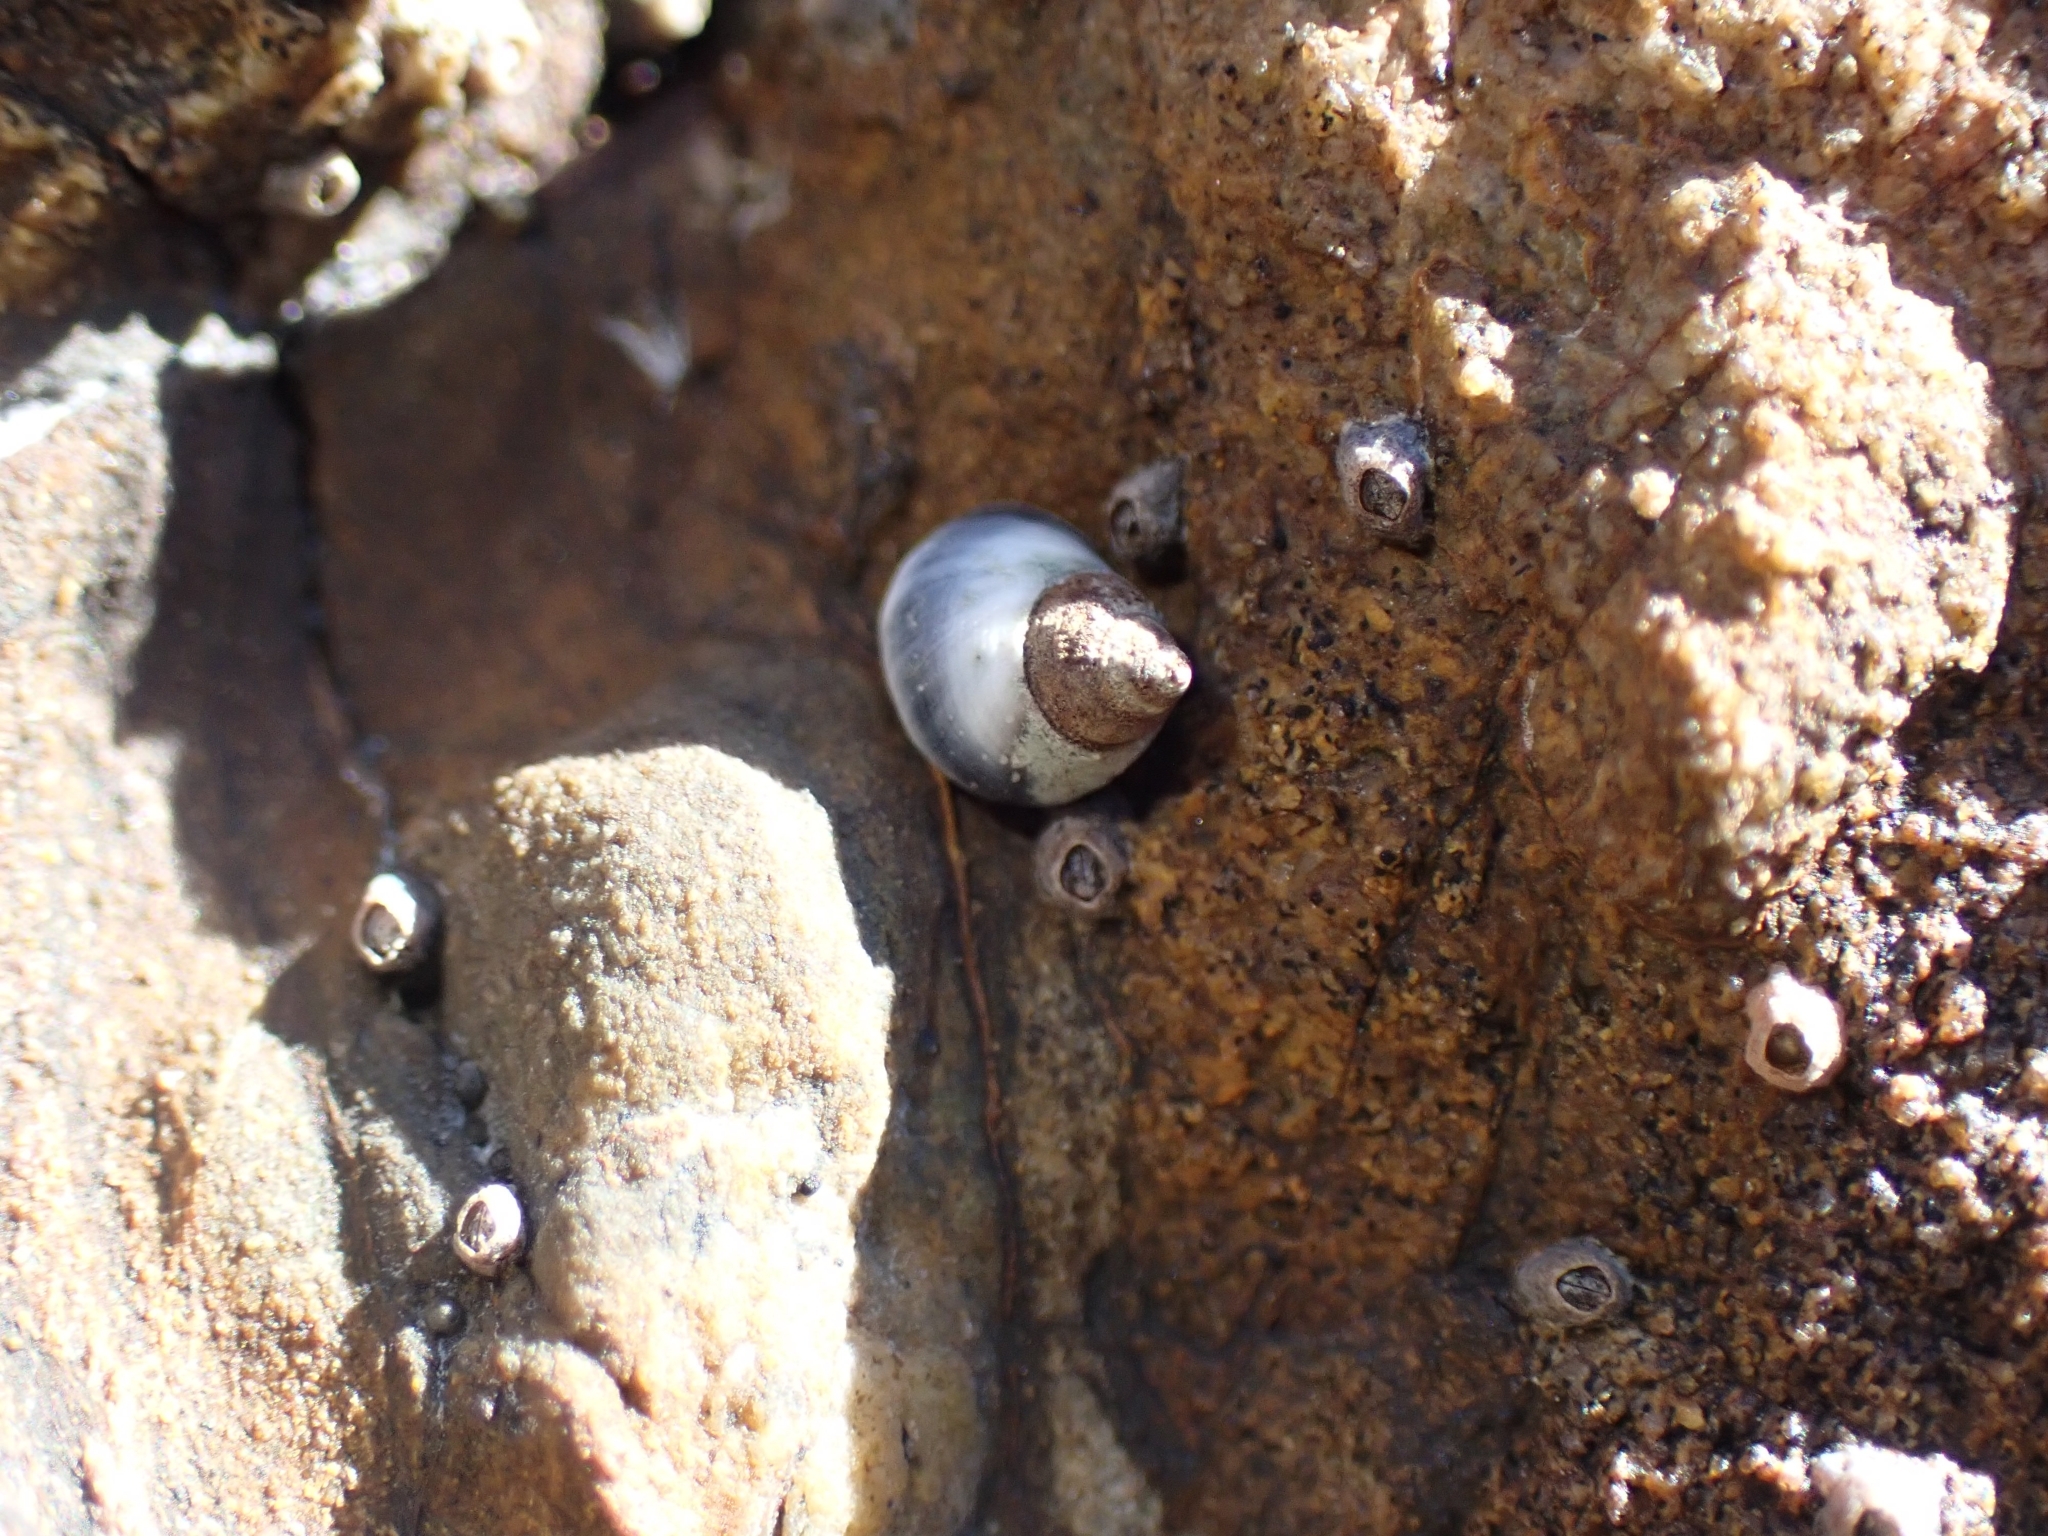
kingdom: Animalia
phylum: Mollusca
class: Gastropoda
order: Littorinimorpha
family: Littorinidae
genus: Austrolittorina
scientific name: Austrolittorina antipodum
